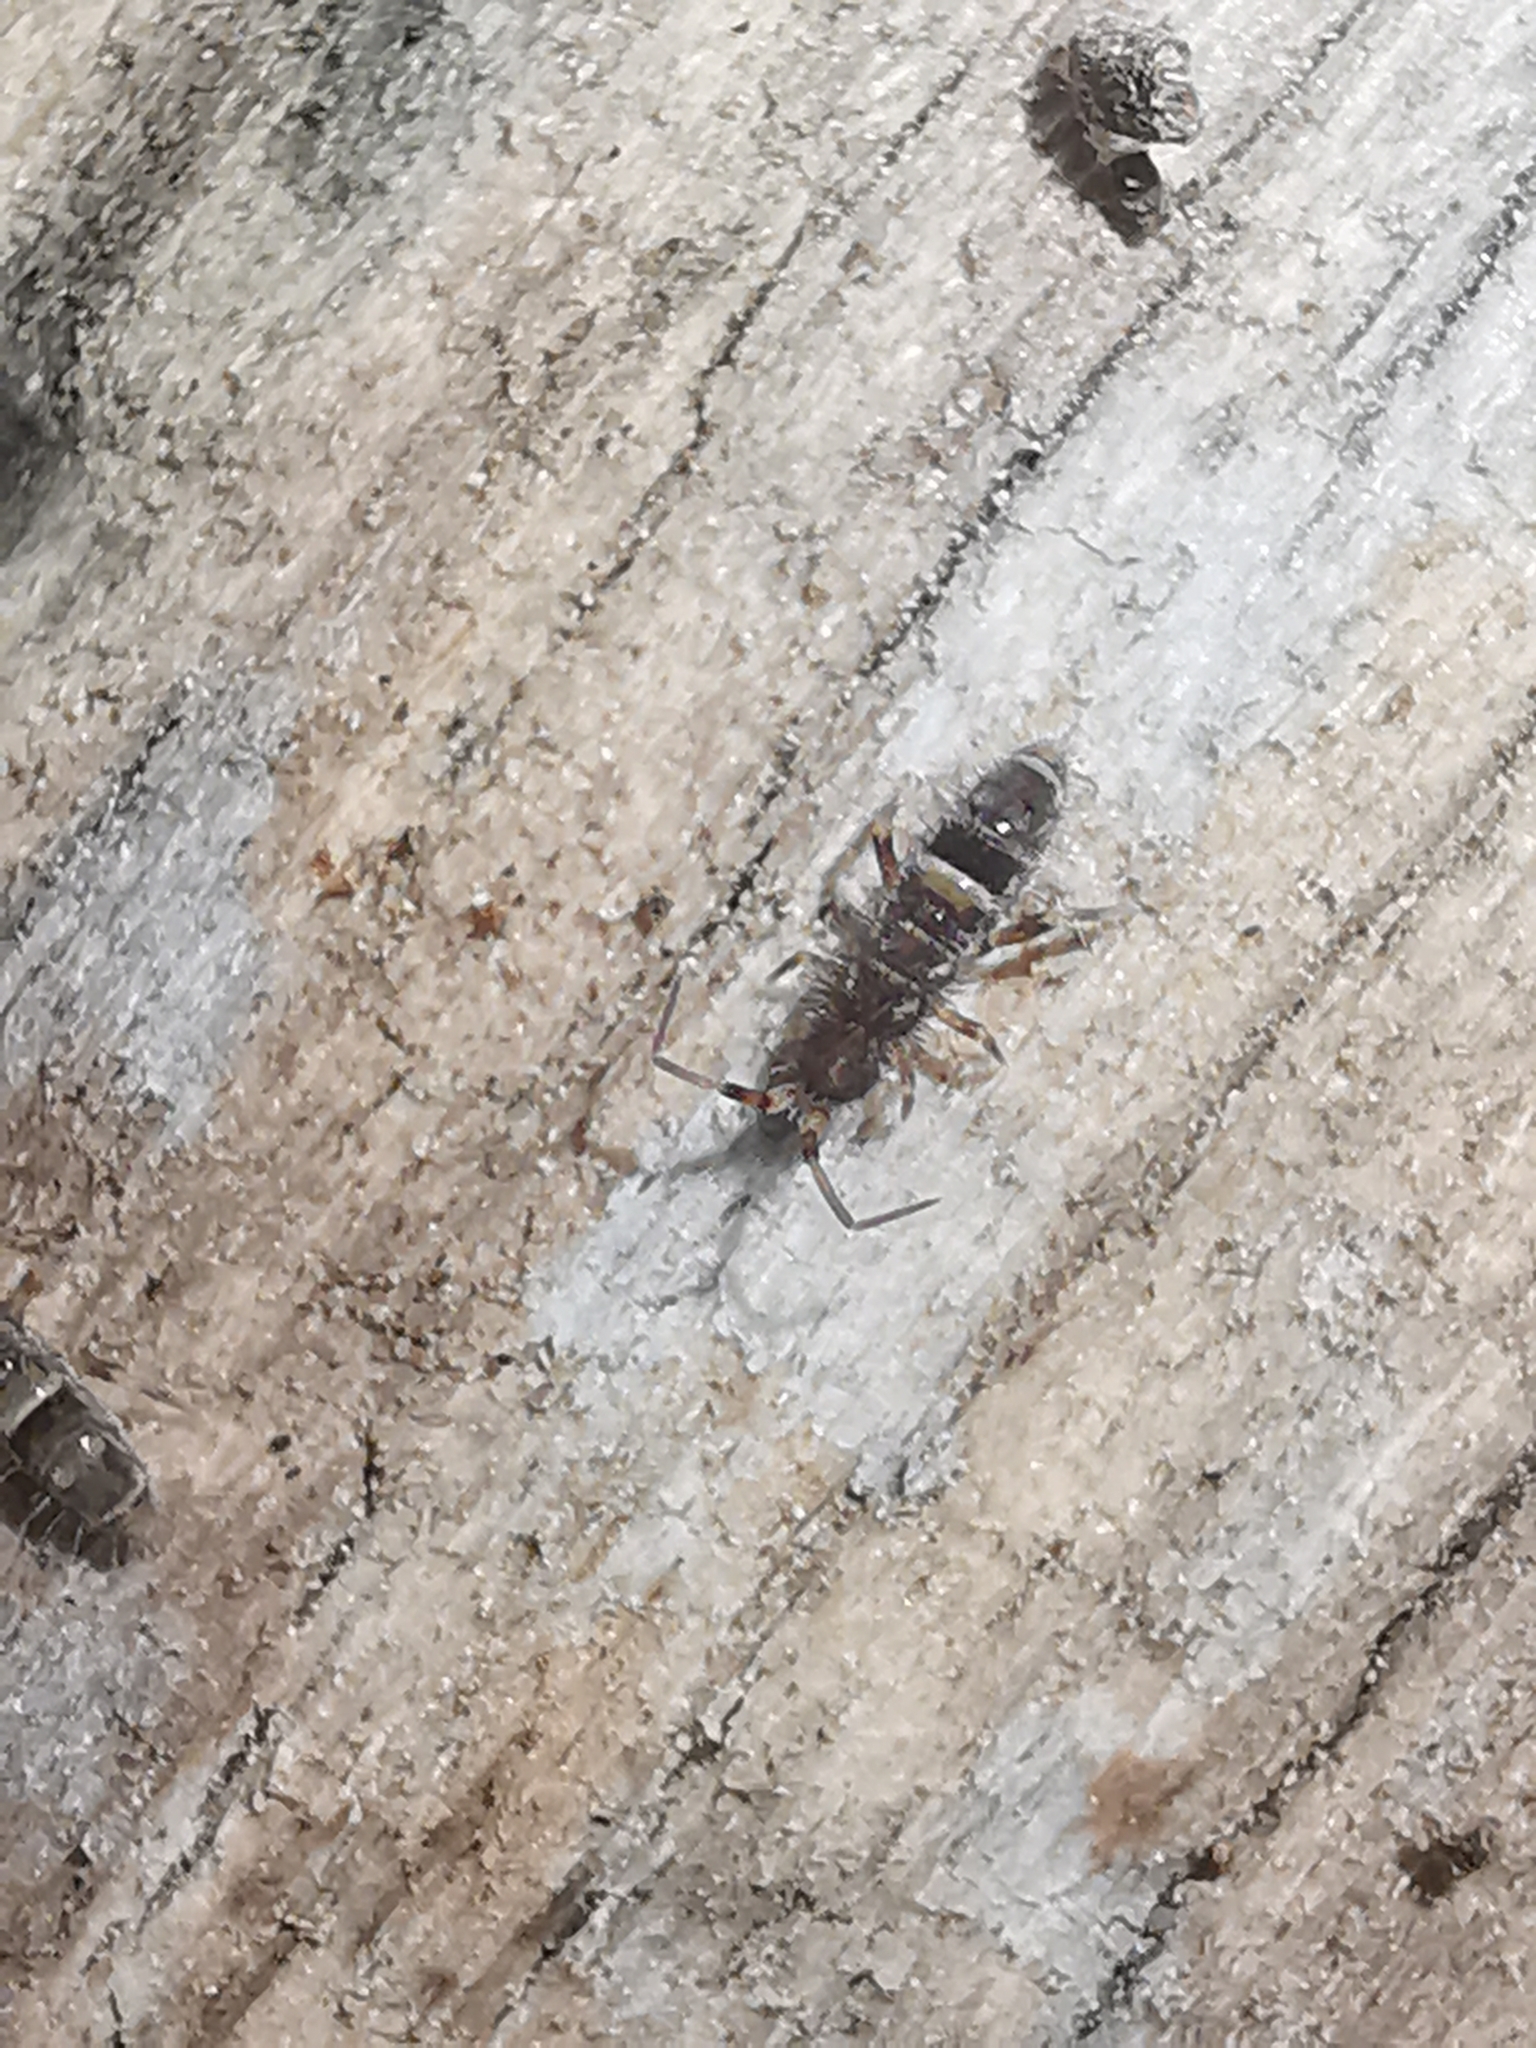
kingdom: Animalia
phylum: Arthropoda
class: Collembola
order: Entomobryomorpha
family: Orchesellidae
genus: Orchesella
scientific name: Orchesella cincta
